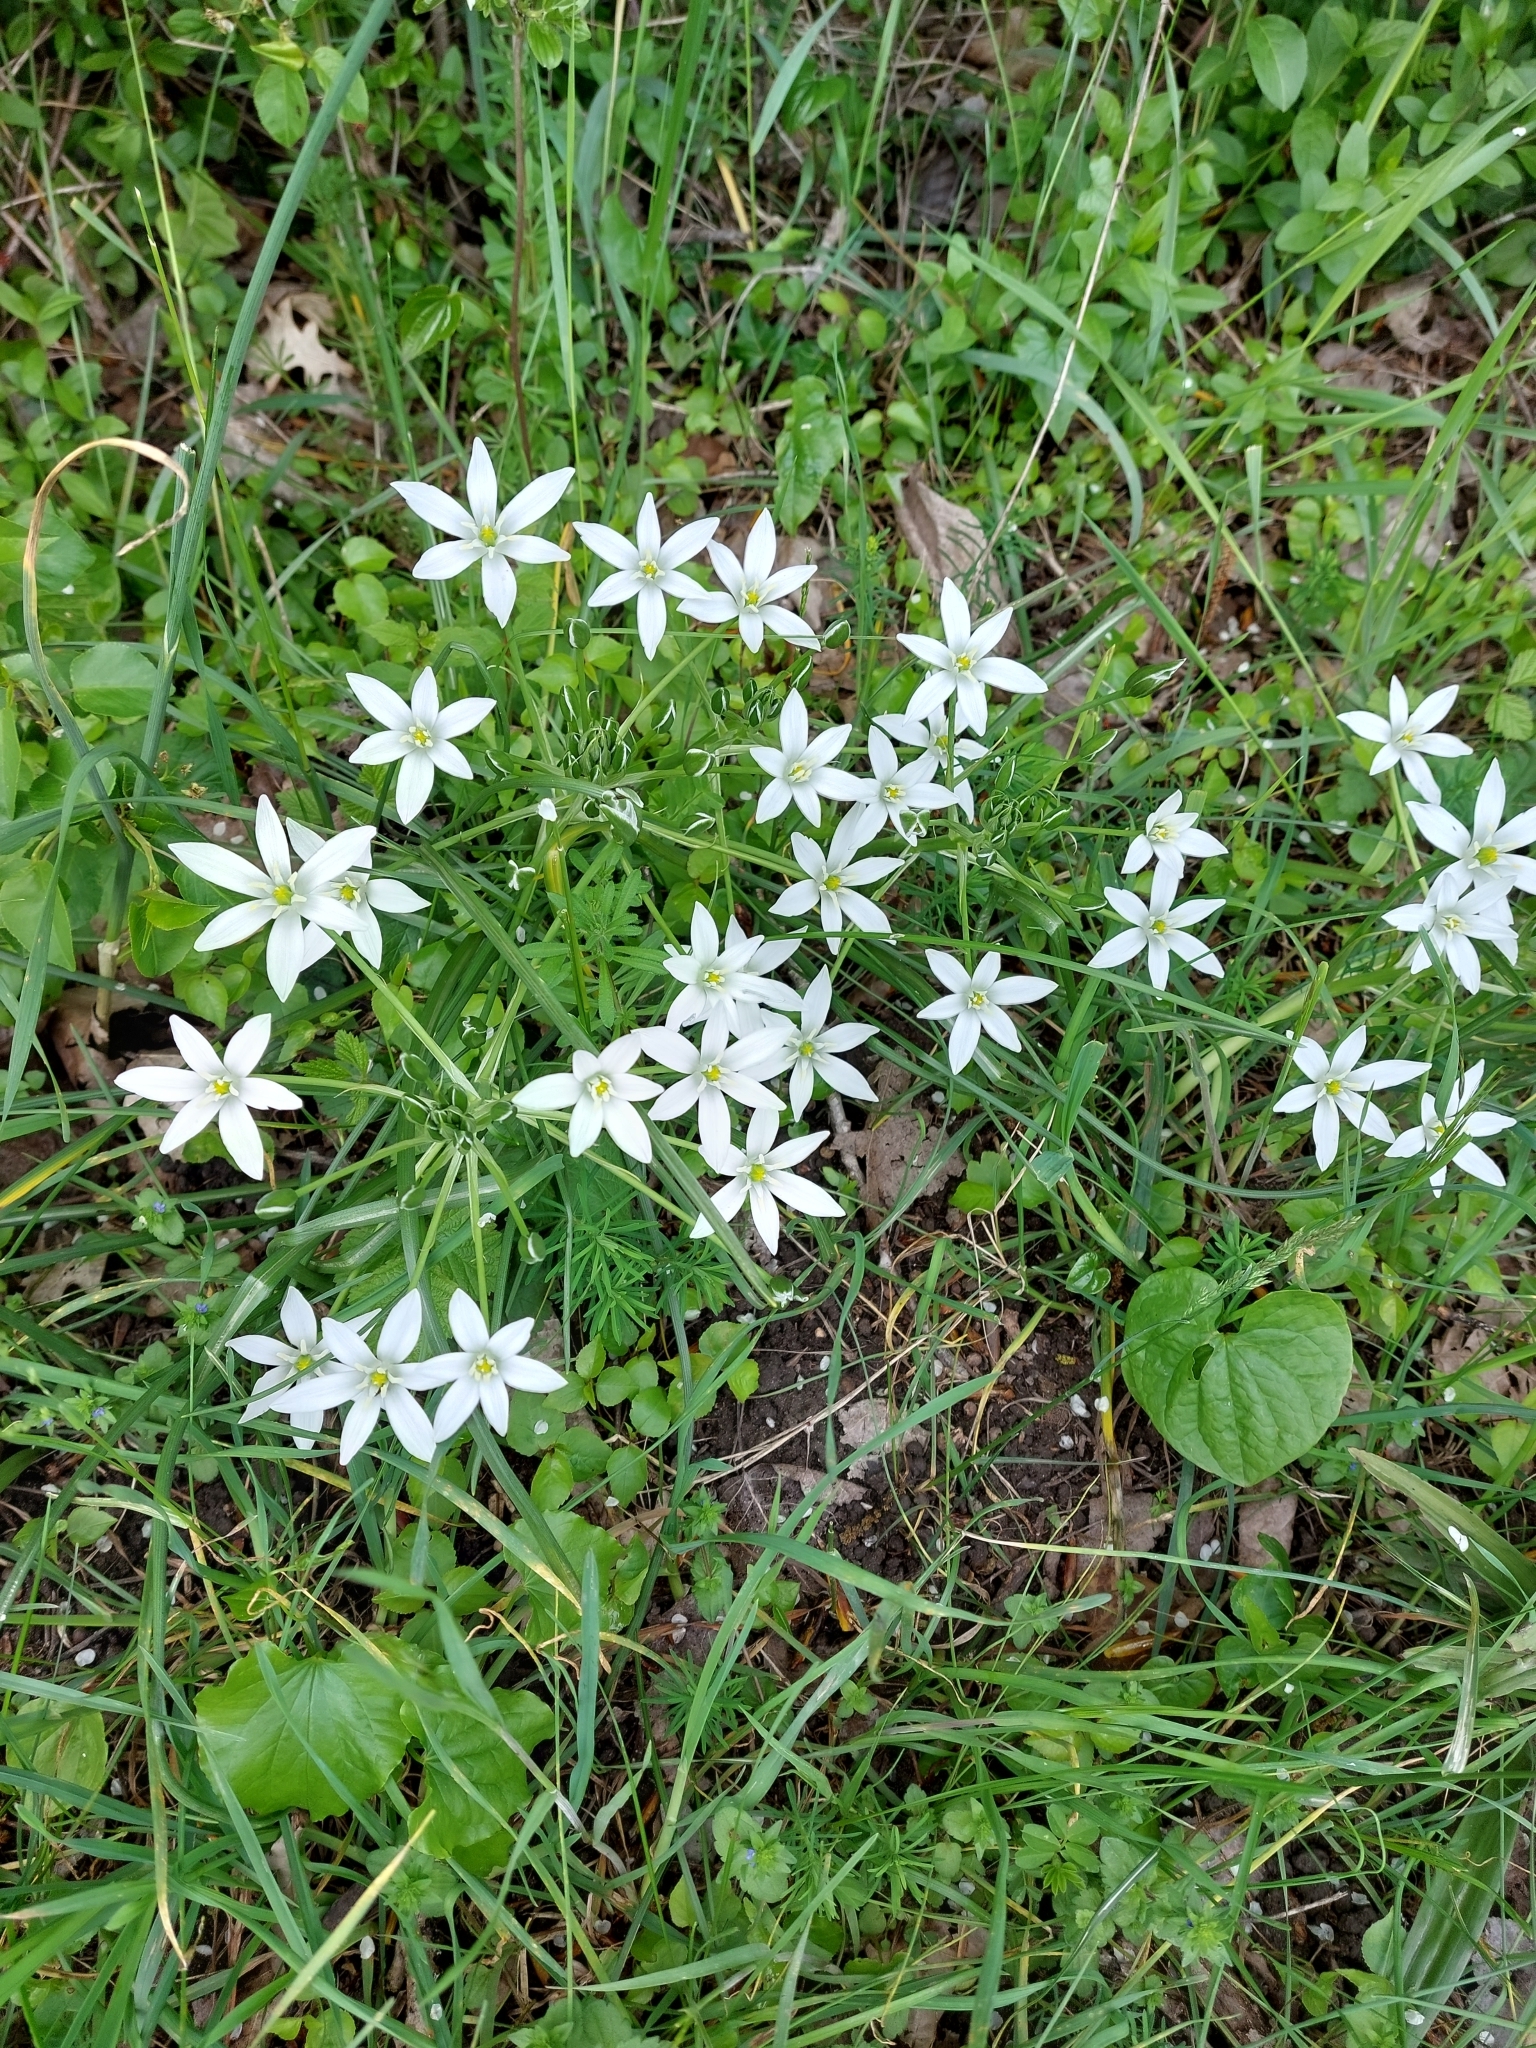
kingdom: Plantae
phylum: Tracheophyta
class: Liliopsida
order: Asparagales
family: Asparagaceae
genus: Ornithogalum
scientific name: Ornithogalum umbellatum
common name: Garden star-of-bethlehem
